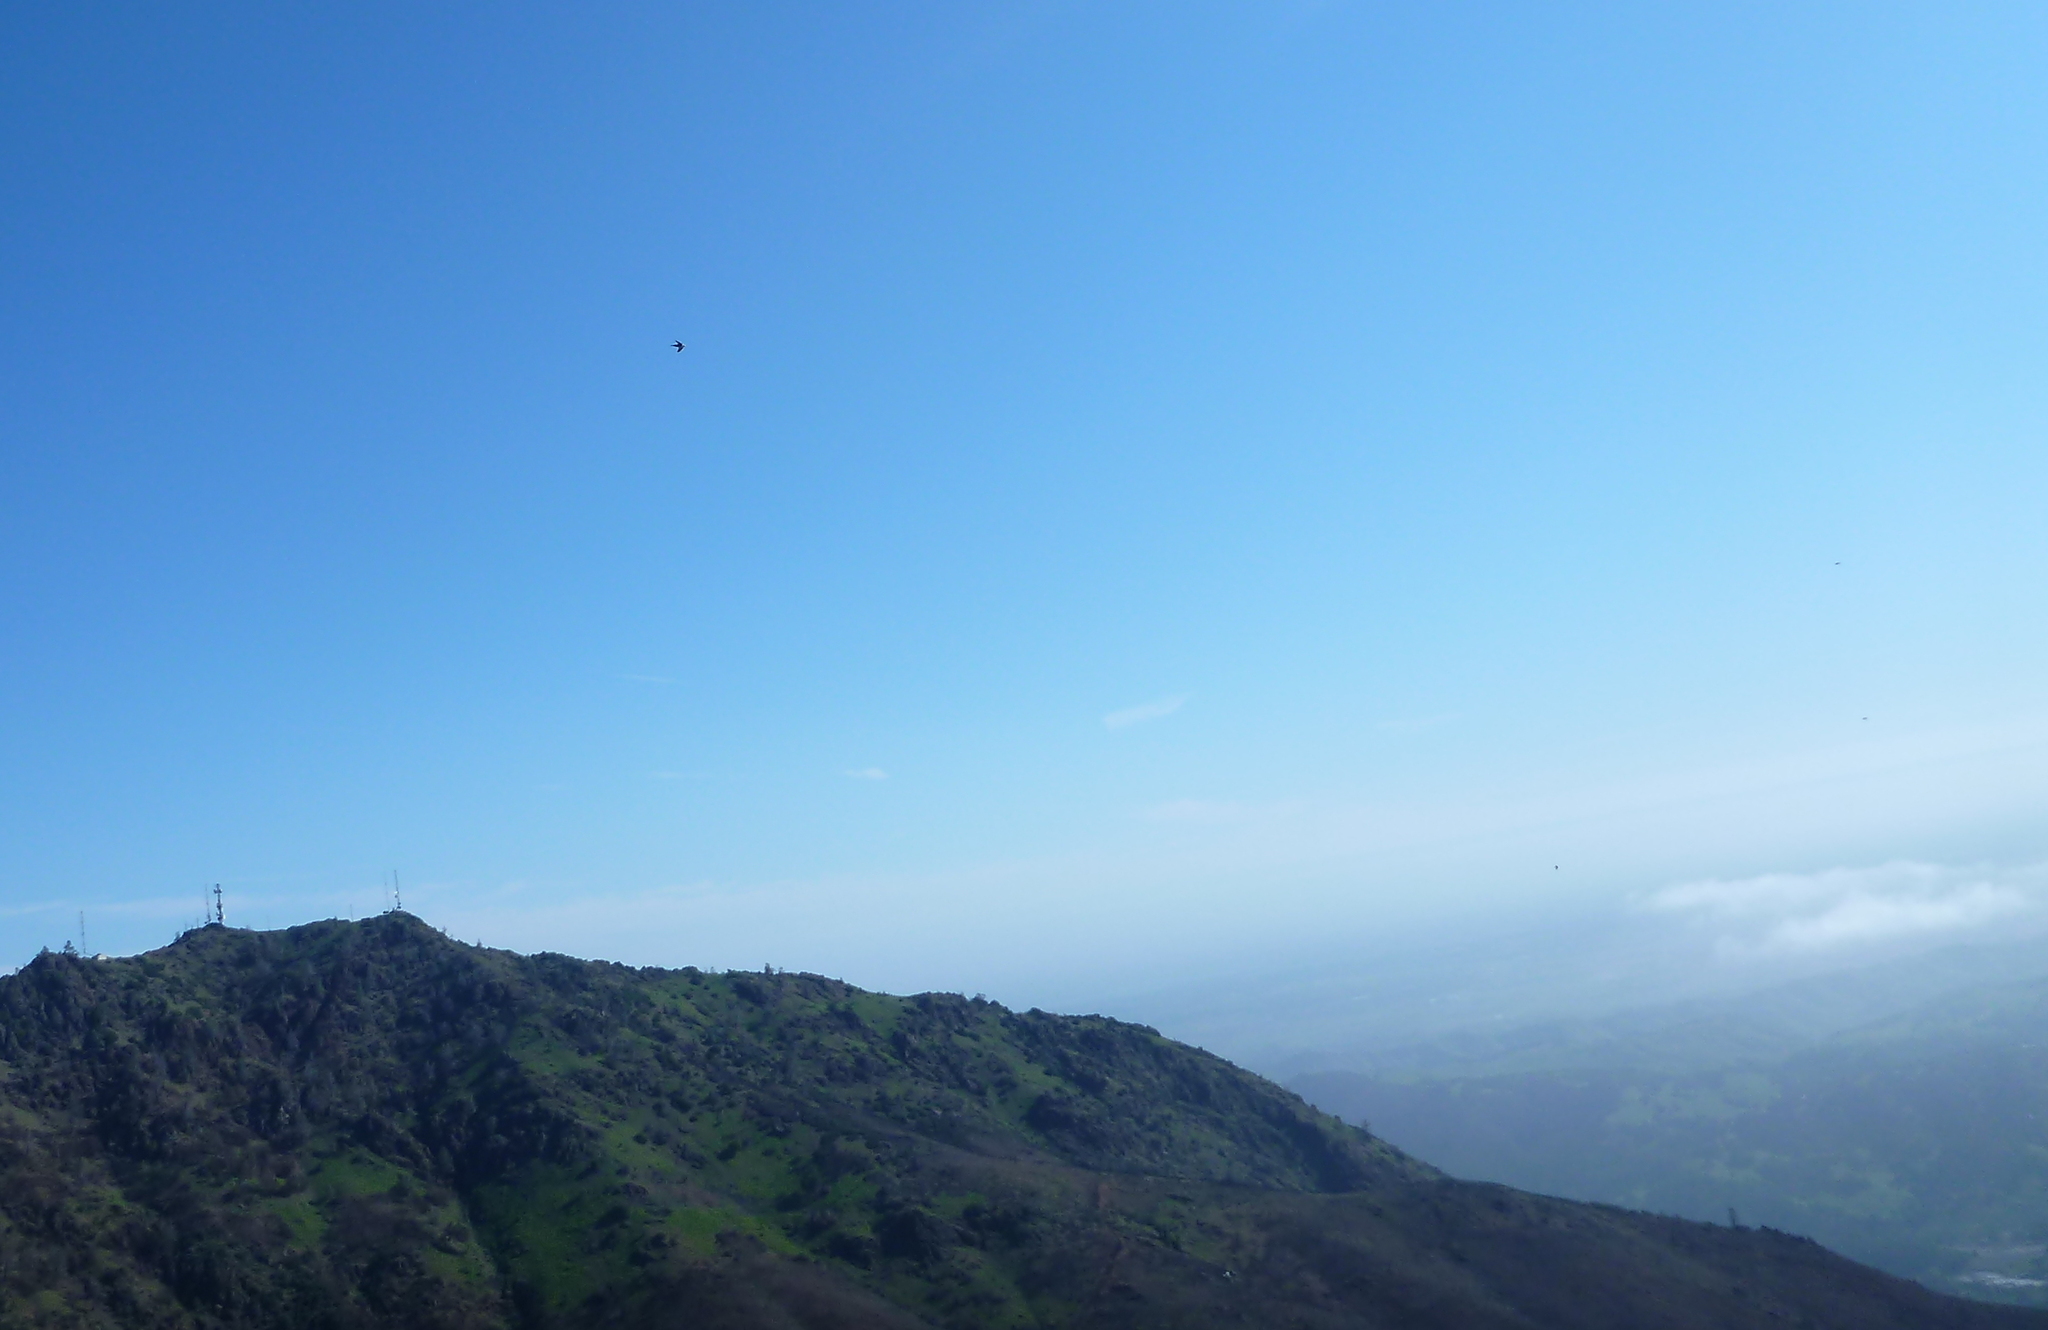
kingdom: Animalia
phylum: Chordata
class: Aves
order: Apodiformes
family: Apodidae
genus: Aeronautes
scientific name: Aeronautes saxatalis
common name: White-throated swift
